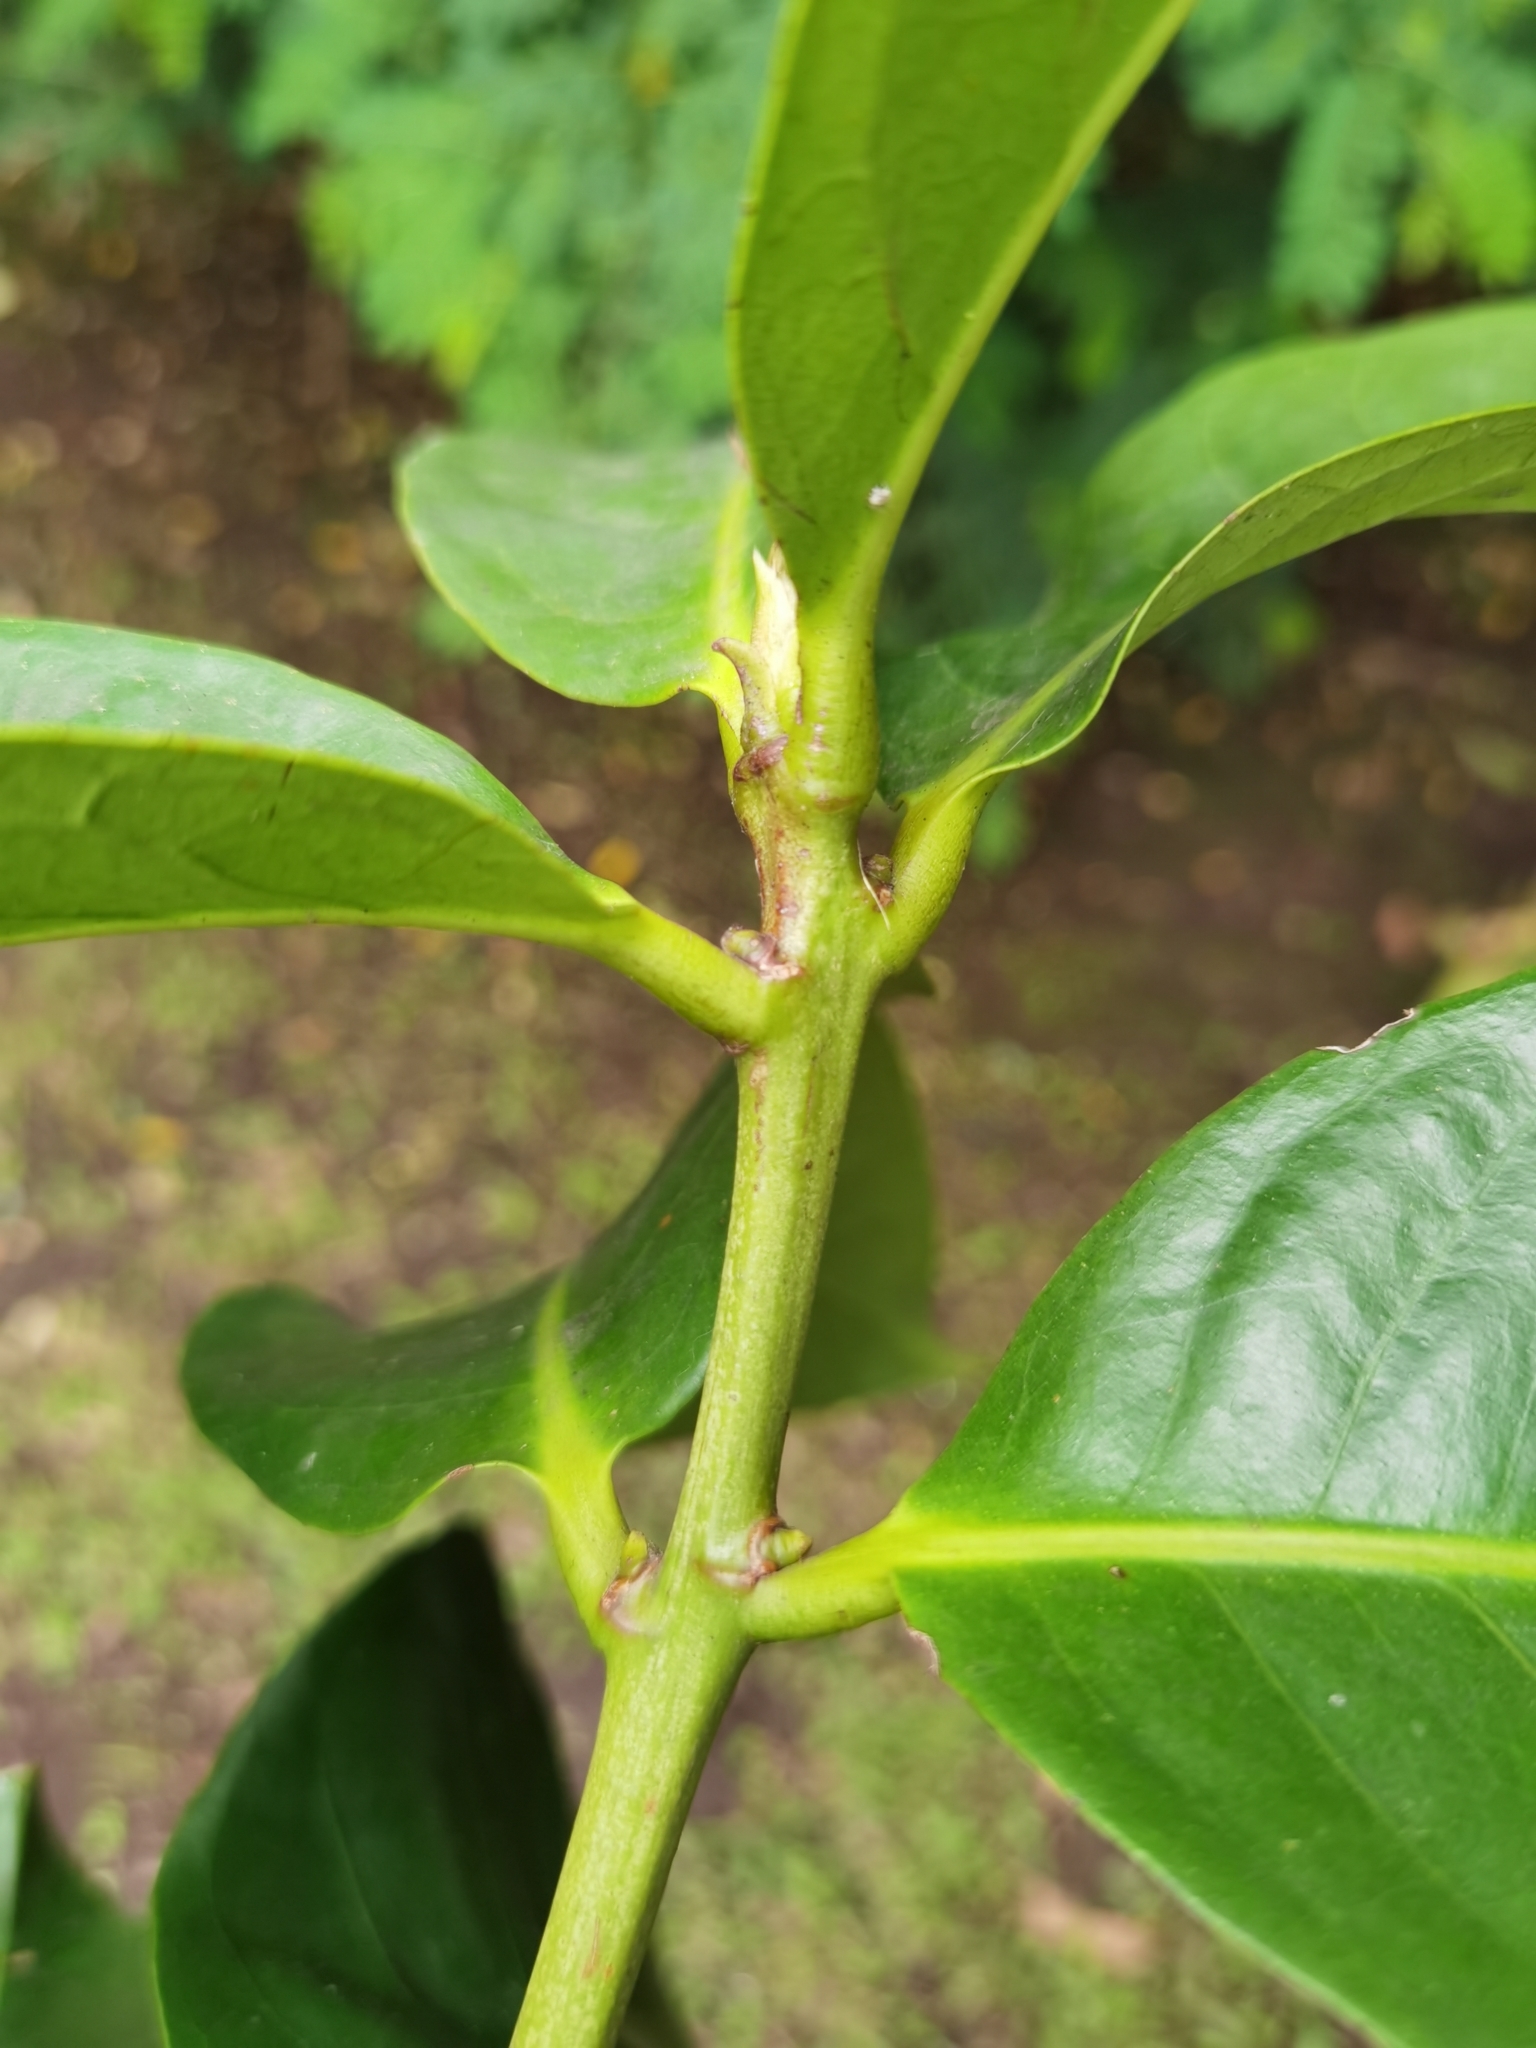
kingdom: Plantae
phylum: Tracheophyta
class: Magnoliopsida
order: Myrtales
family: Myrtaceae
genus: Syzygium
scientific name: Syzygium malaccense
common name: Malaysian apple
